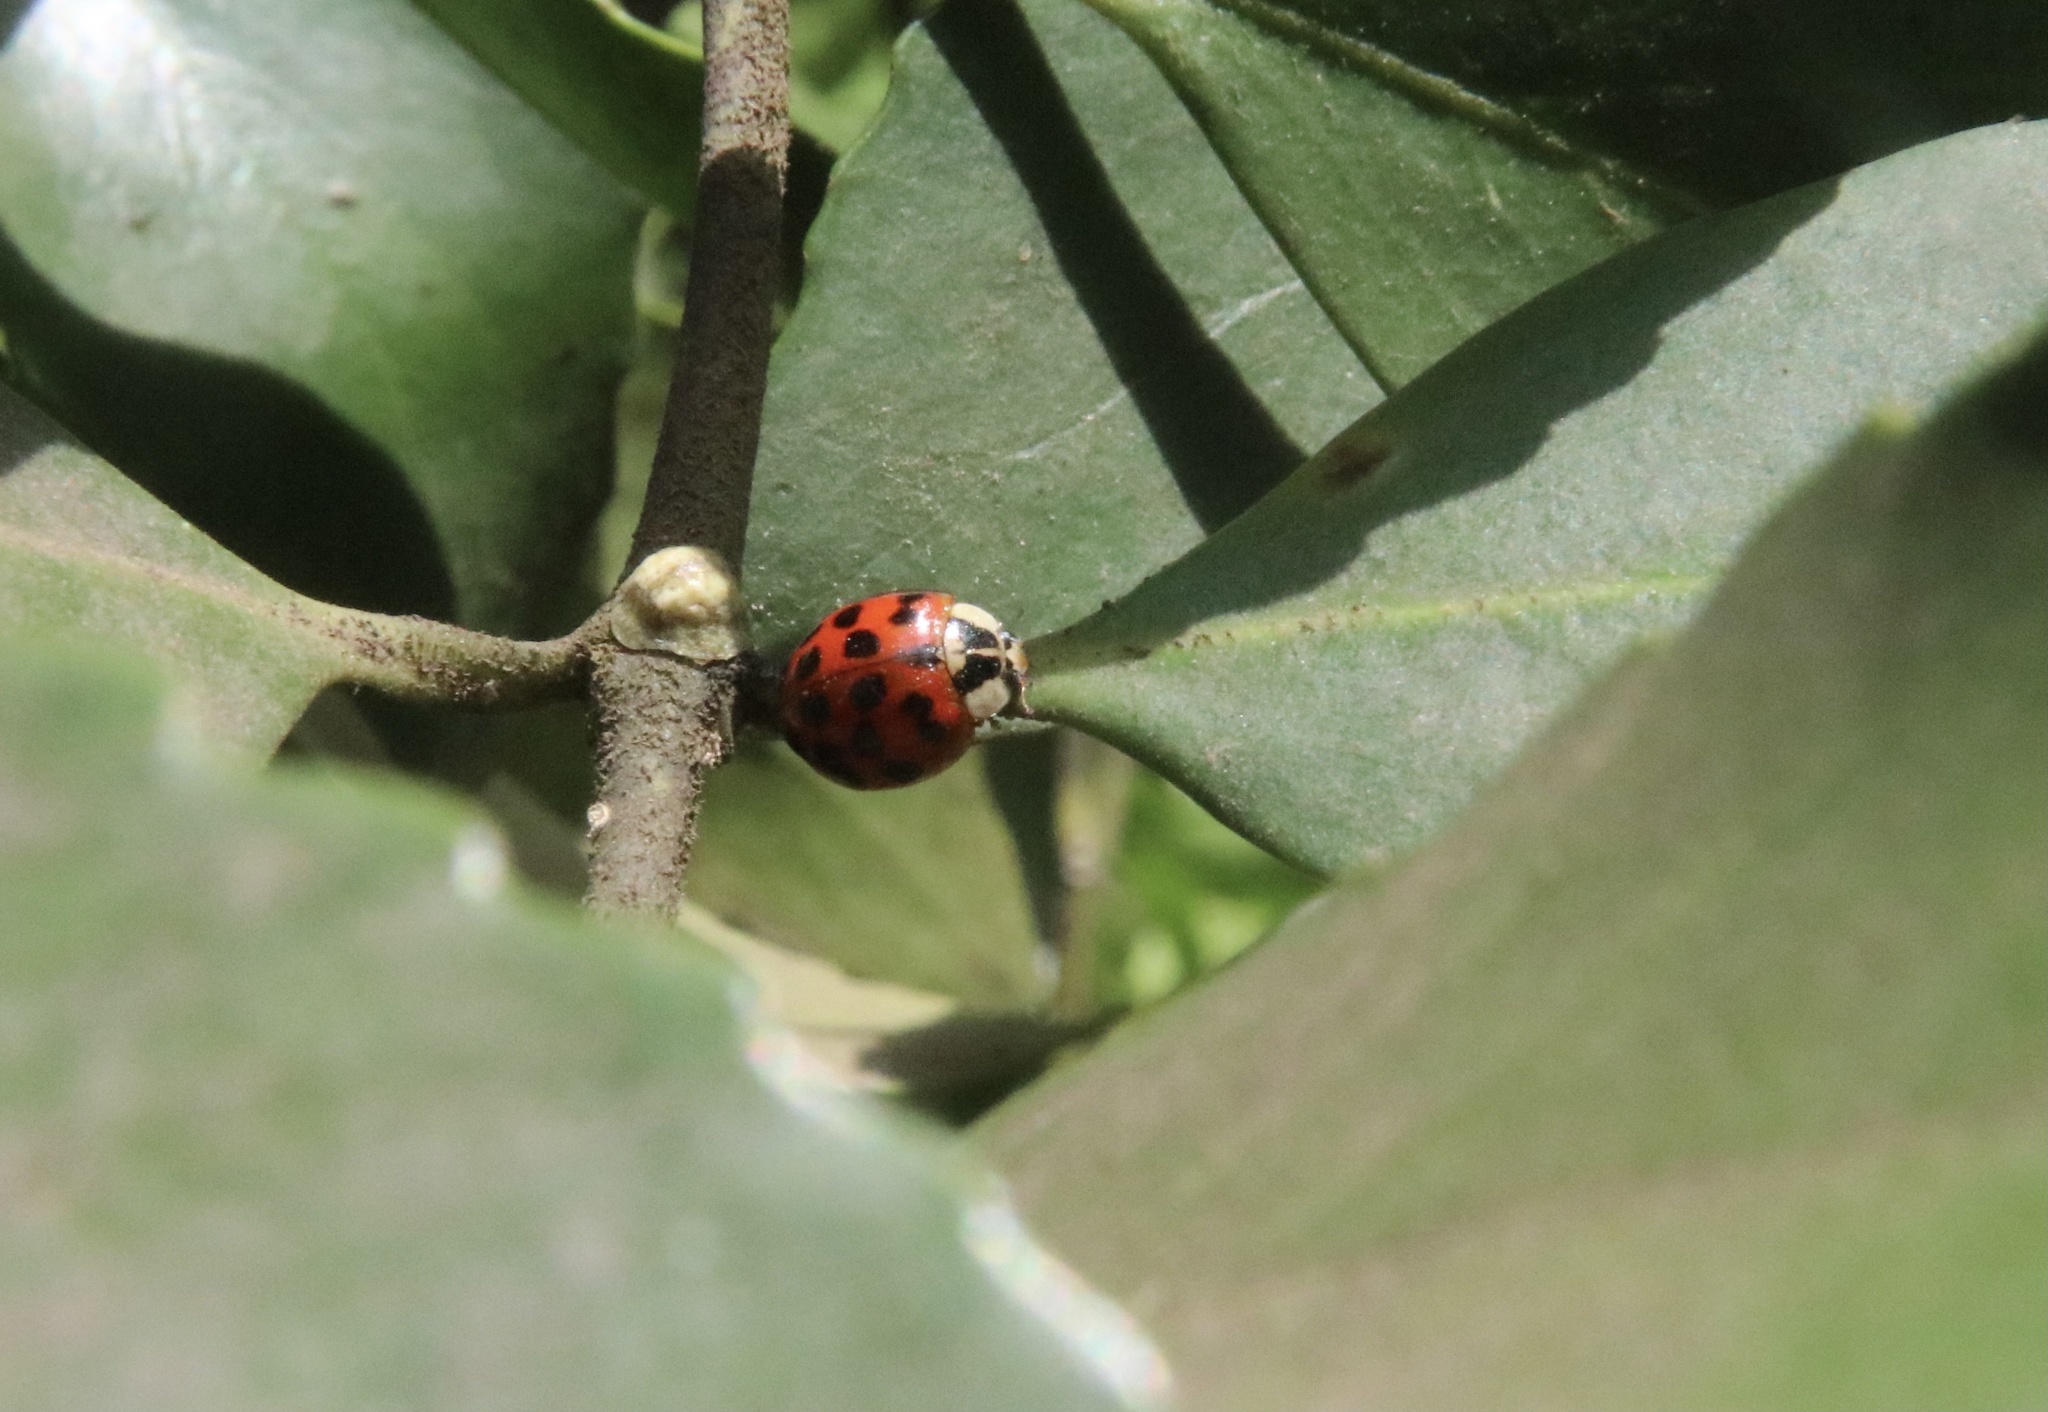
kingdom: Animalia
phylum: Arthropoda
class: Insecta
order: Coleoptera
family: Coccinellidae
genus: Harmonia
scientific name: Harmonia axyridis
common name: Harlequin ladybird
